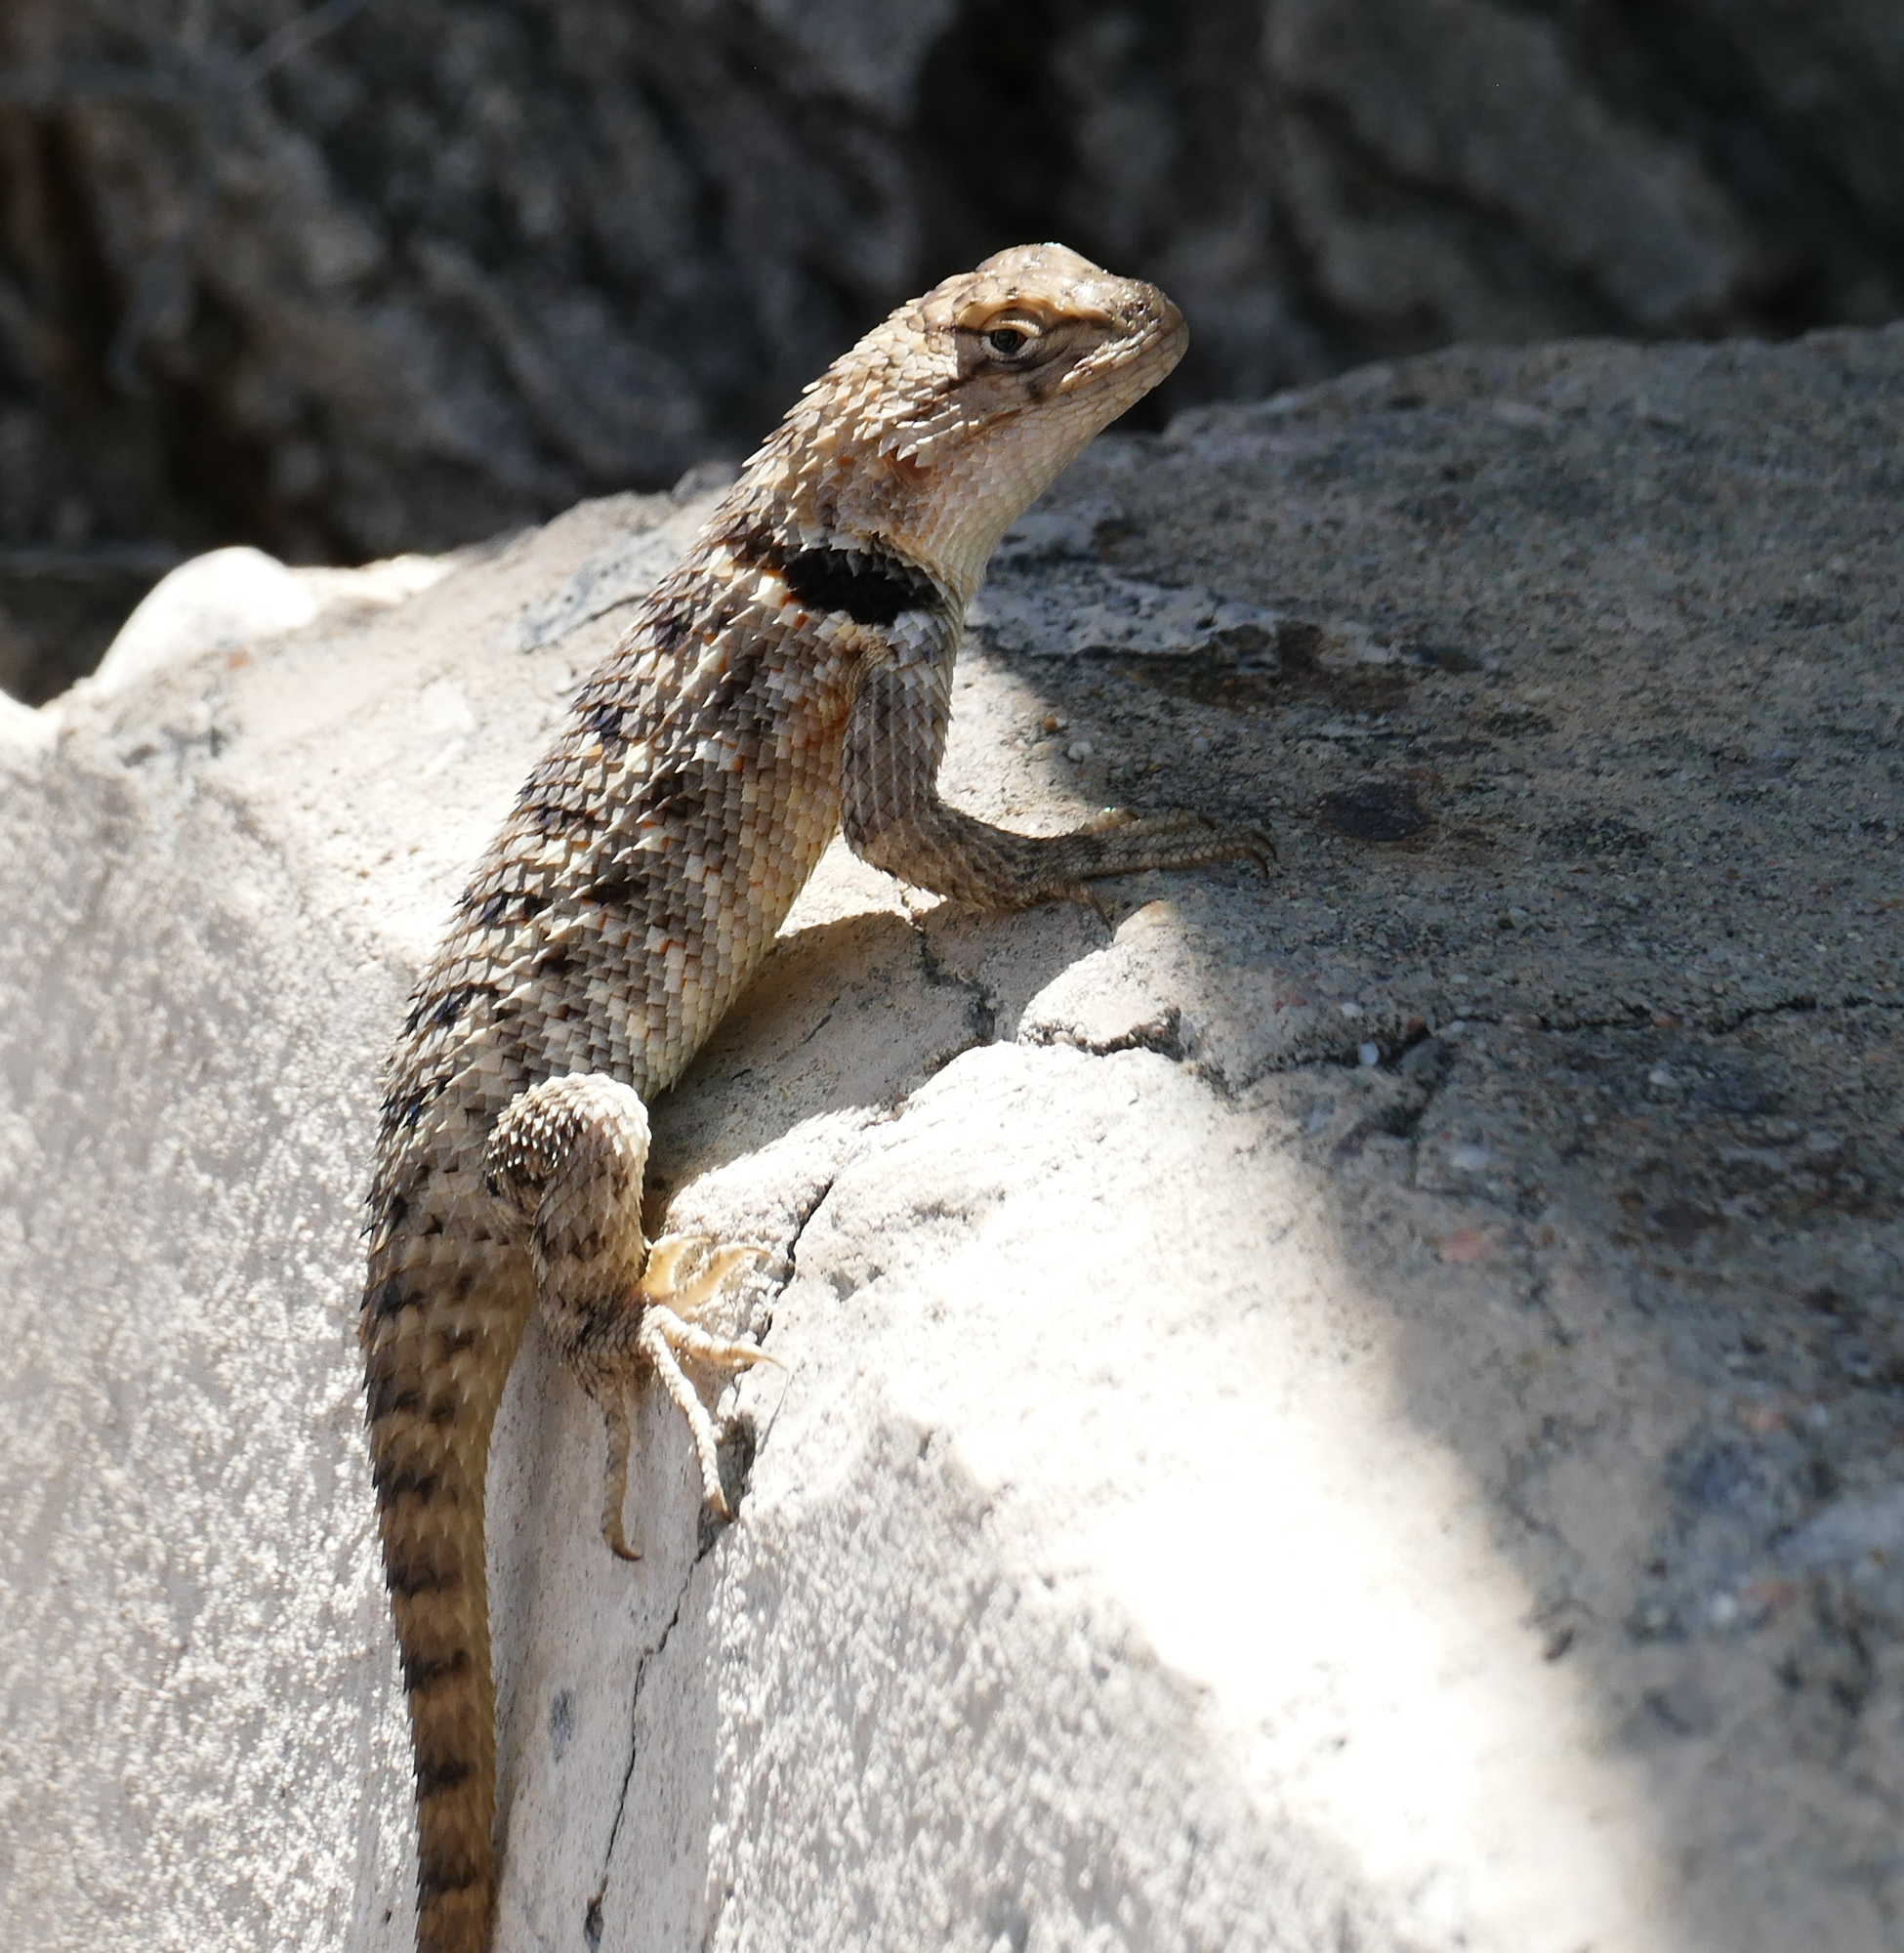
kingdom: Animalia
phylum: Chordata
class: Squamata
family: Phrynosomatidae
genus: Sceloporus
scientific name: Sceloporus bimaculosus
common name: Twin-spotted spiny lizard
